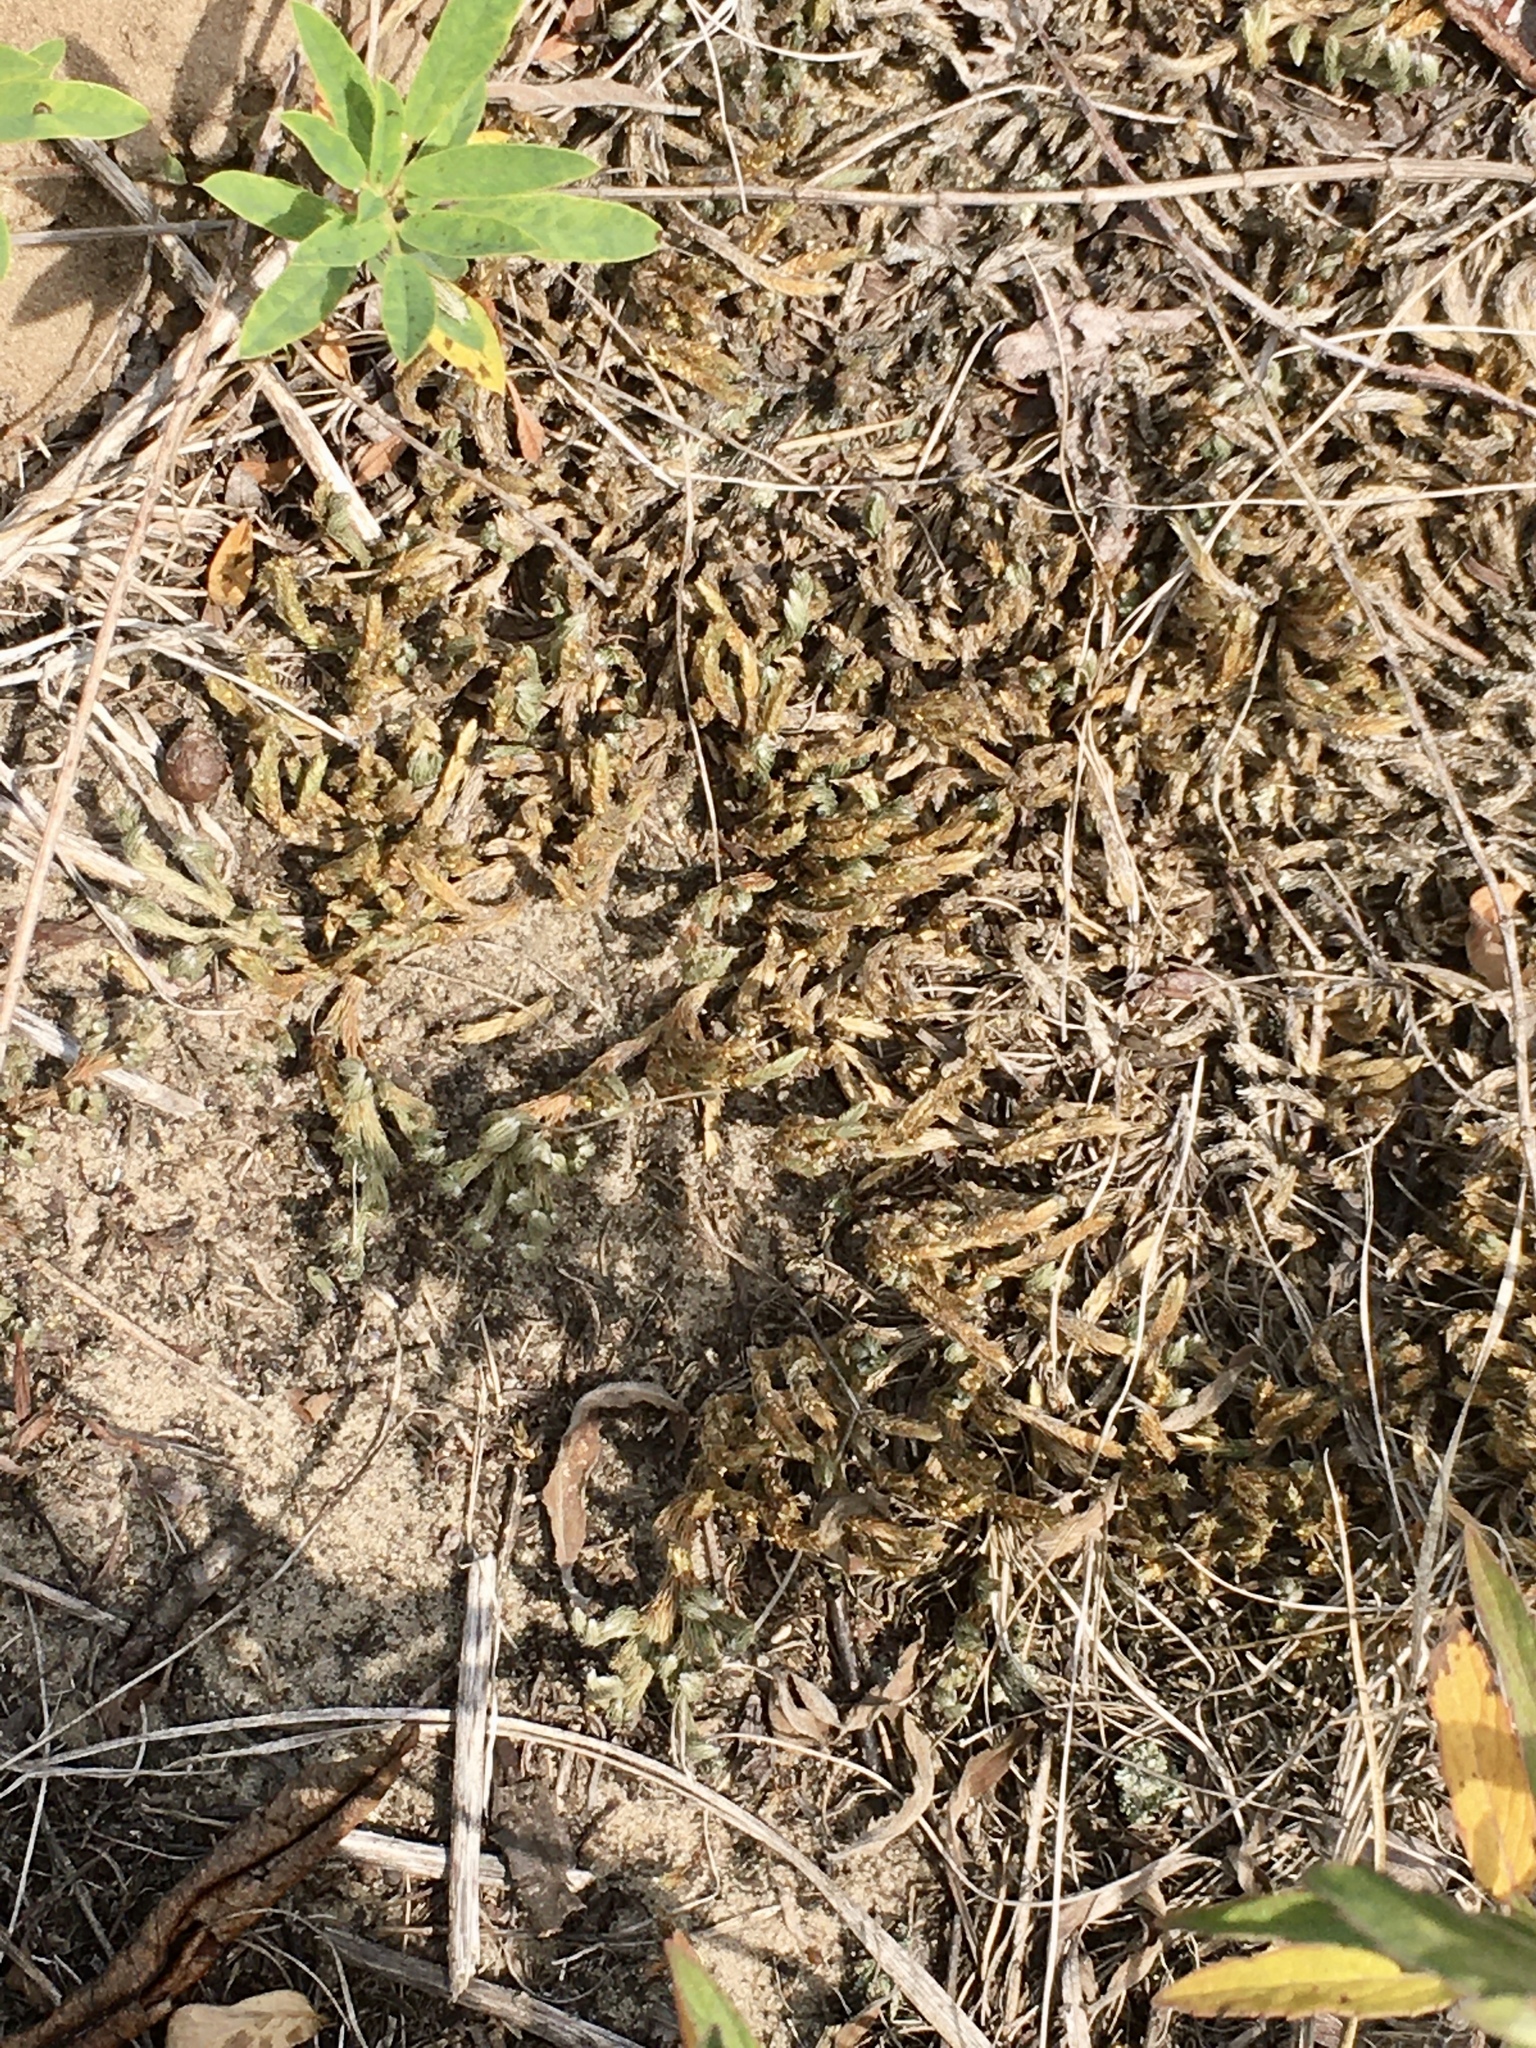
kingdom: Plantae
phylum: Tracheophyta
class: Lycopodiopsida
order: Selaginellales
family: Selaginellaceae
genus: Selaginella
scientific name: Selaginella rupestris
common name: Dwarf spikemoss
